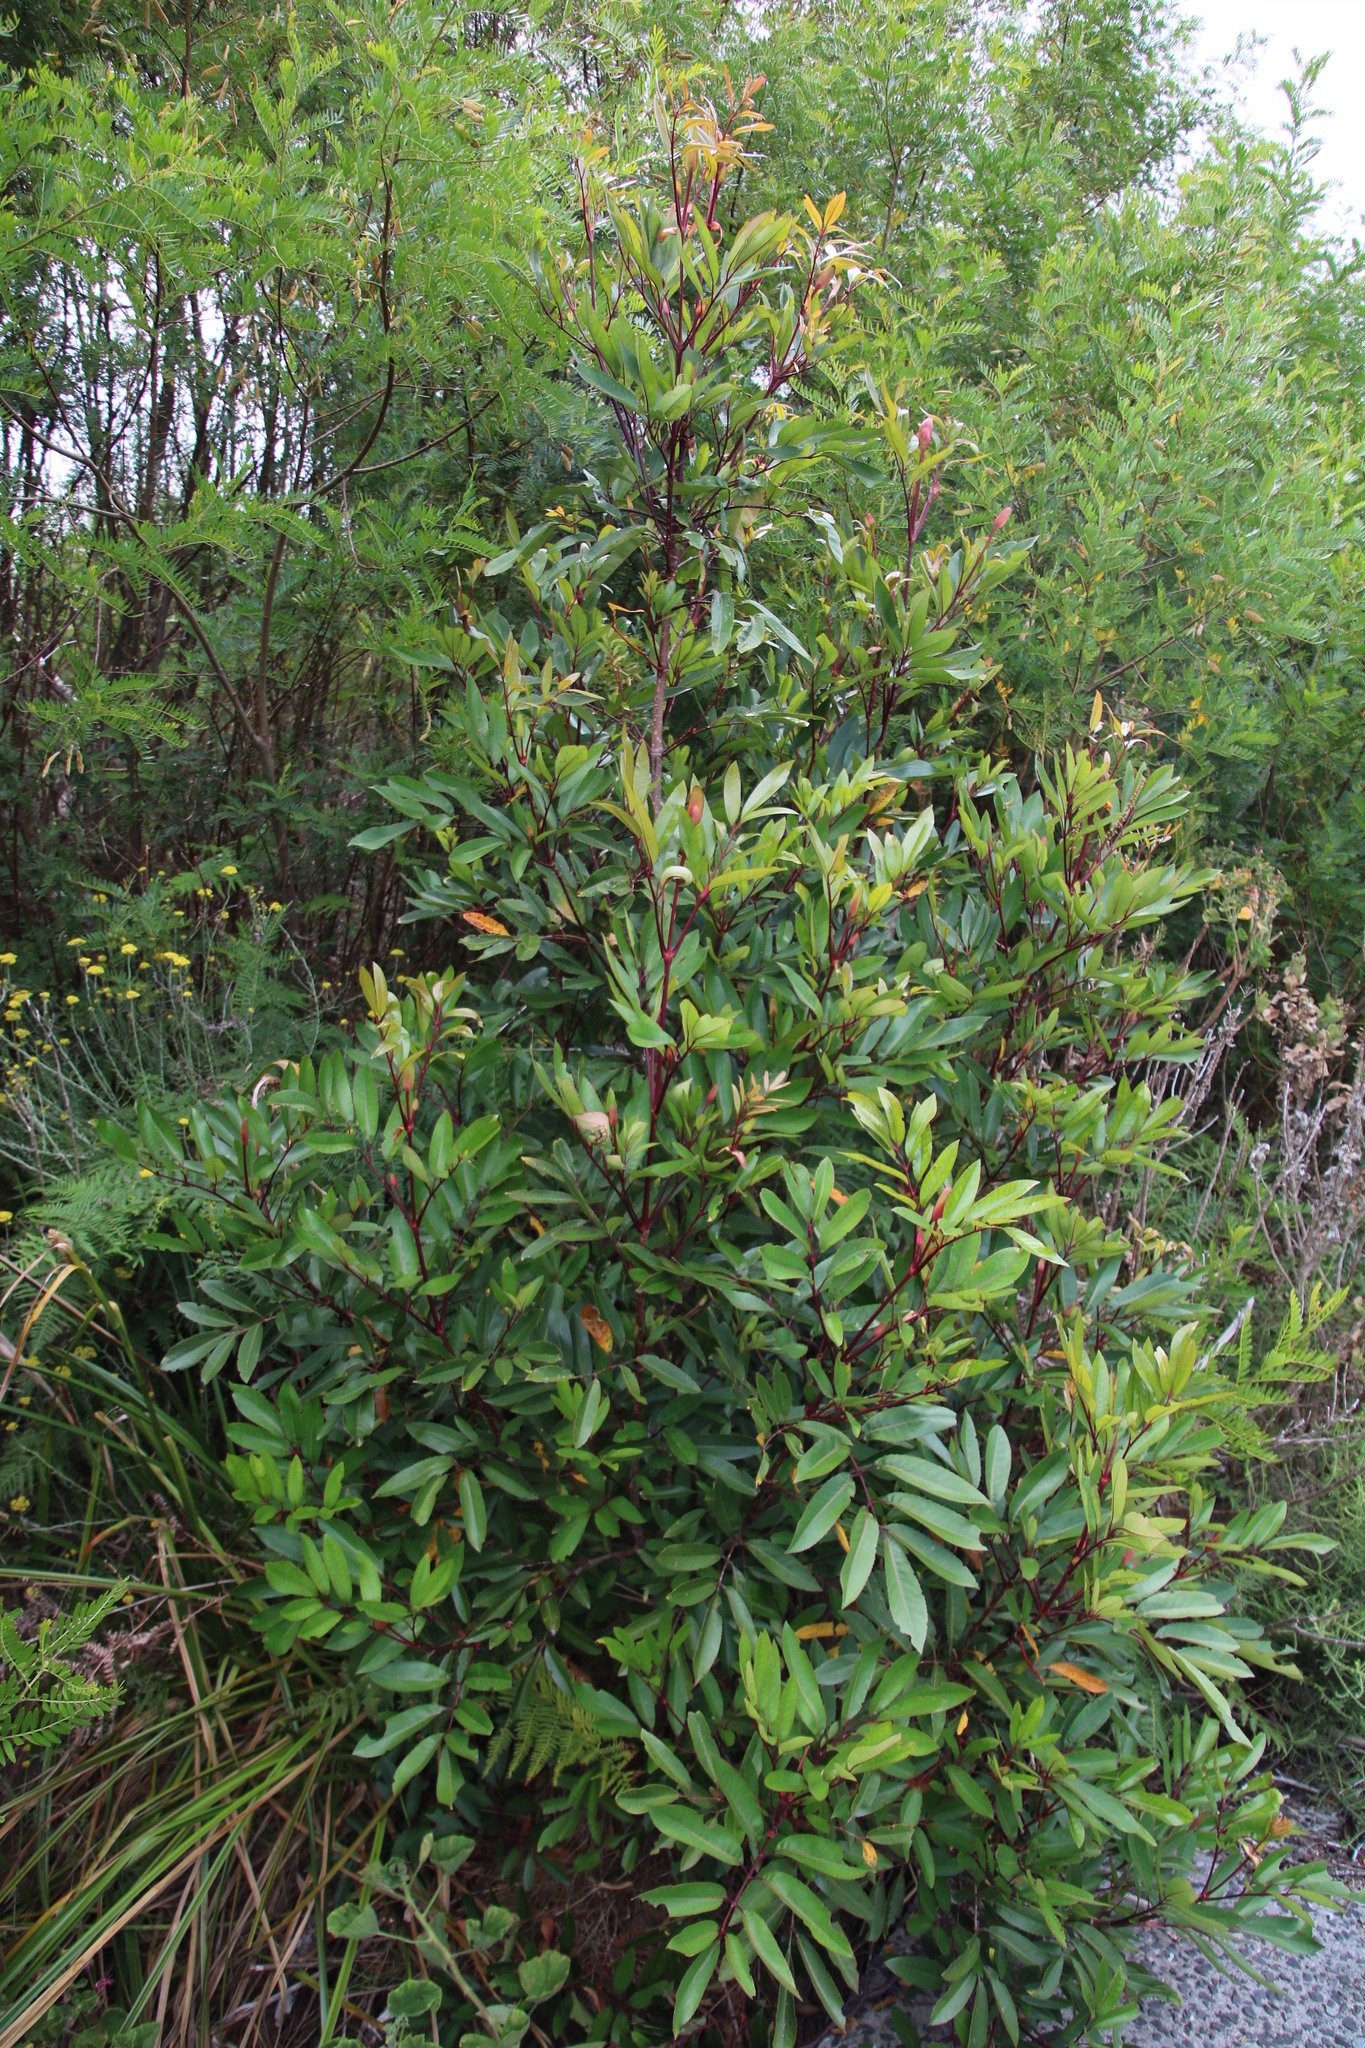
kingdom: Plantae
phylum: Tracheophyta
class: Magnoliopsida
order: Oxalidales
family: Cunoniaceae
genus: Cunonia
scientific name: Cunonia capensis
